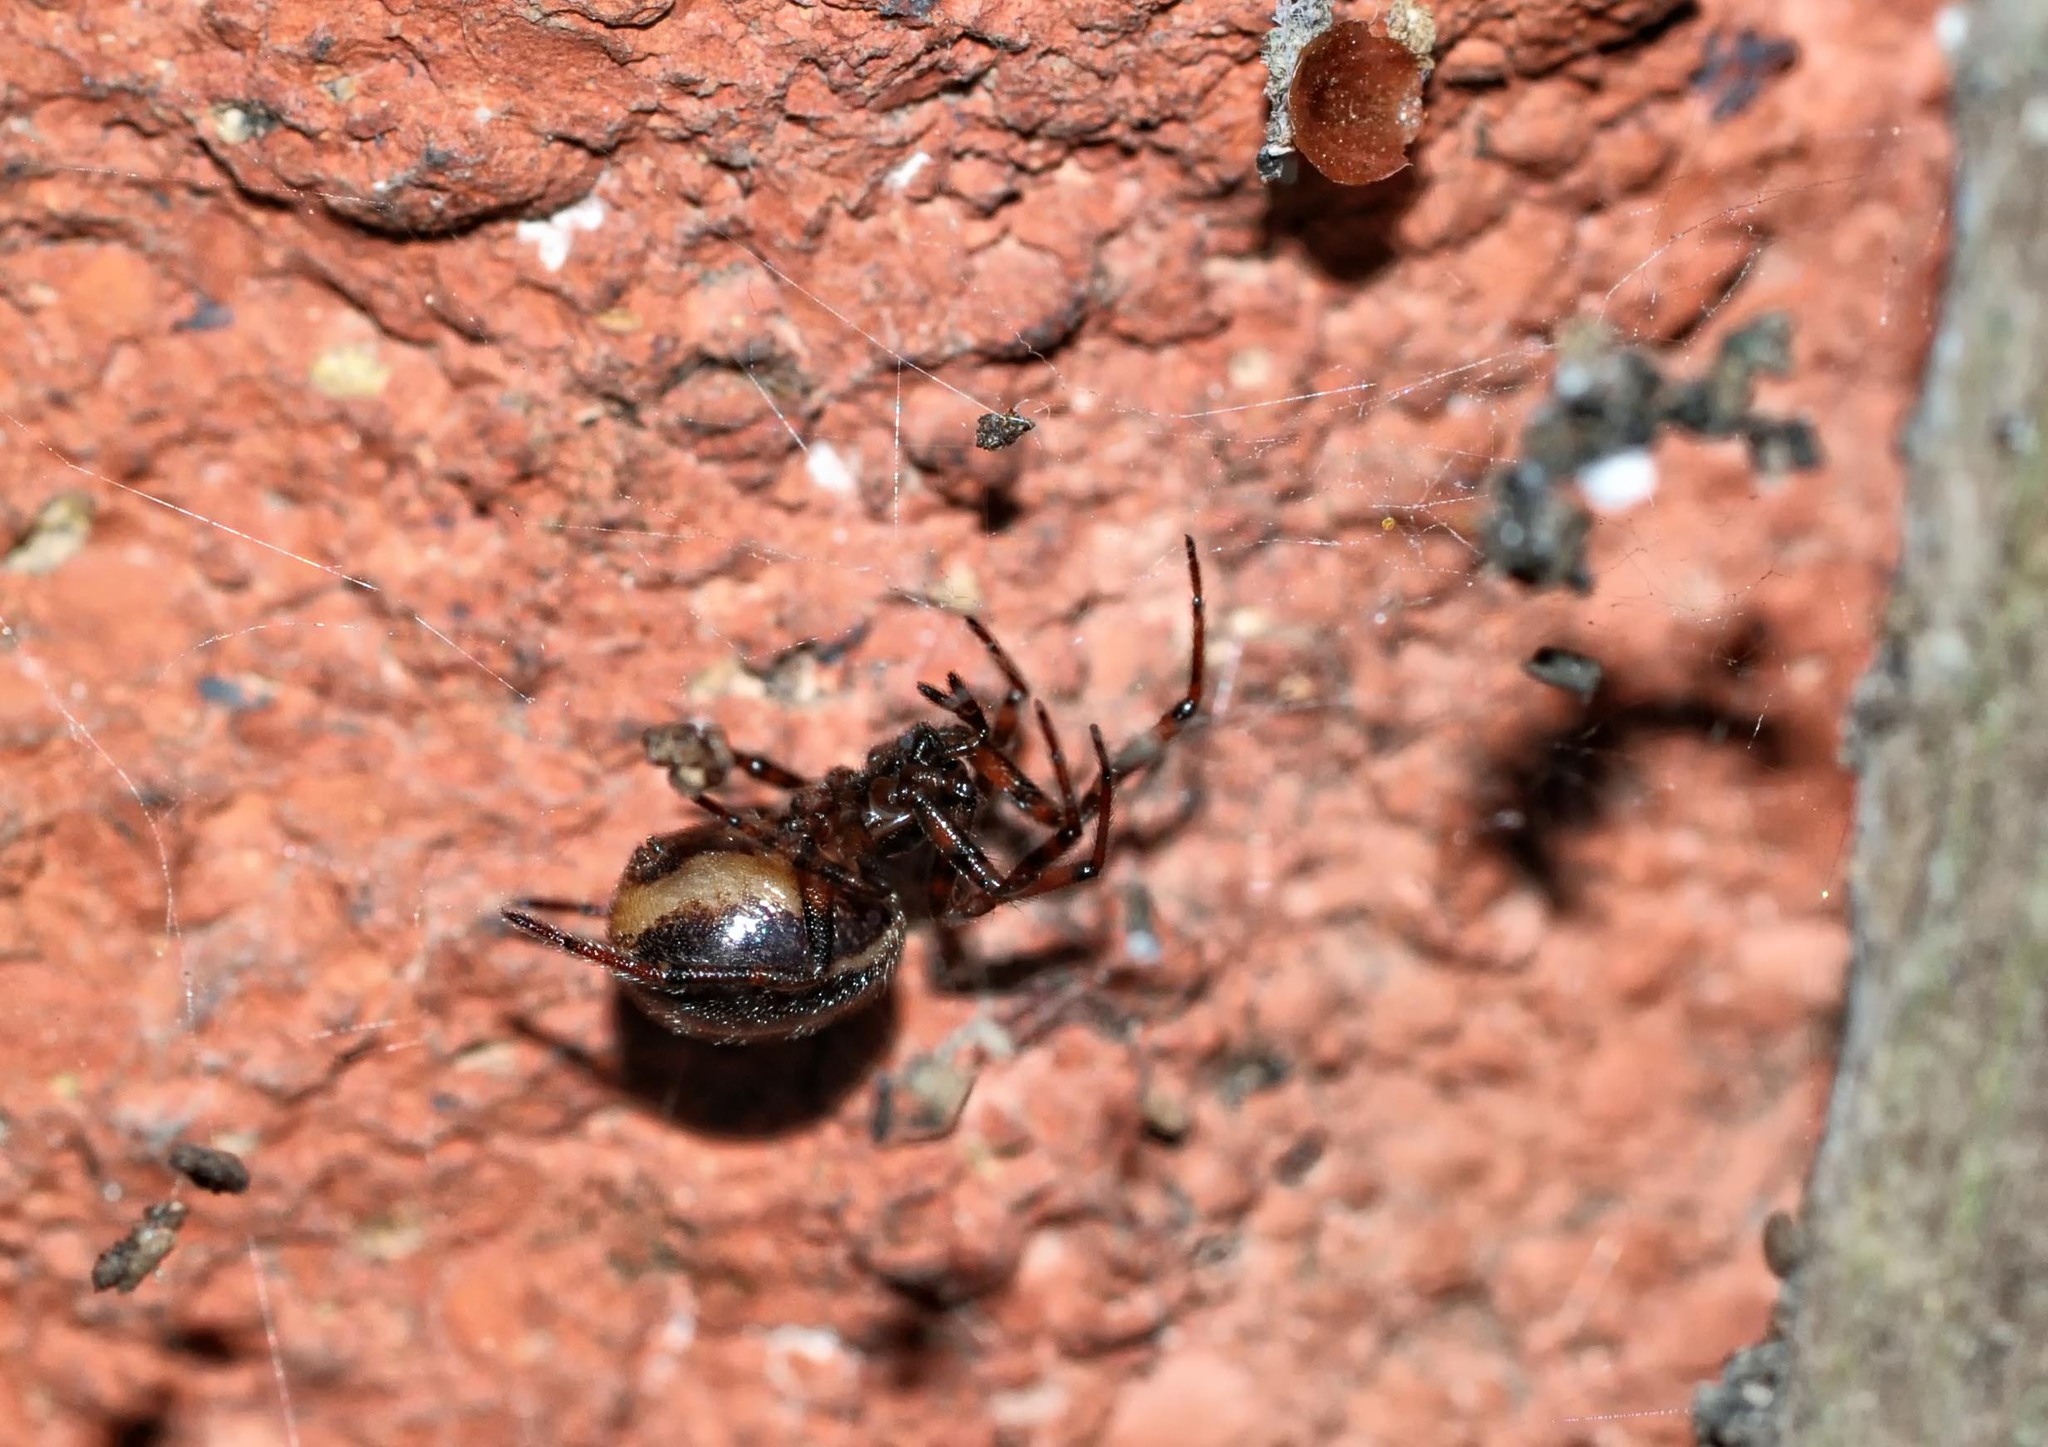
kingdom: Animalia
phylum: Arthropoda
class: Arachnida
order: Araneae
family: Theridiidae
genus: Steatoda
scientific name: Steatoda bipunctata
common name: False widow
